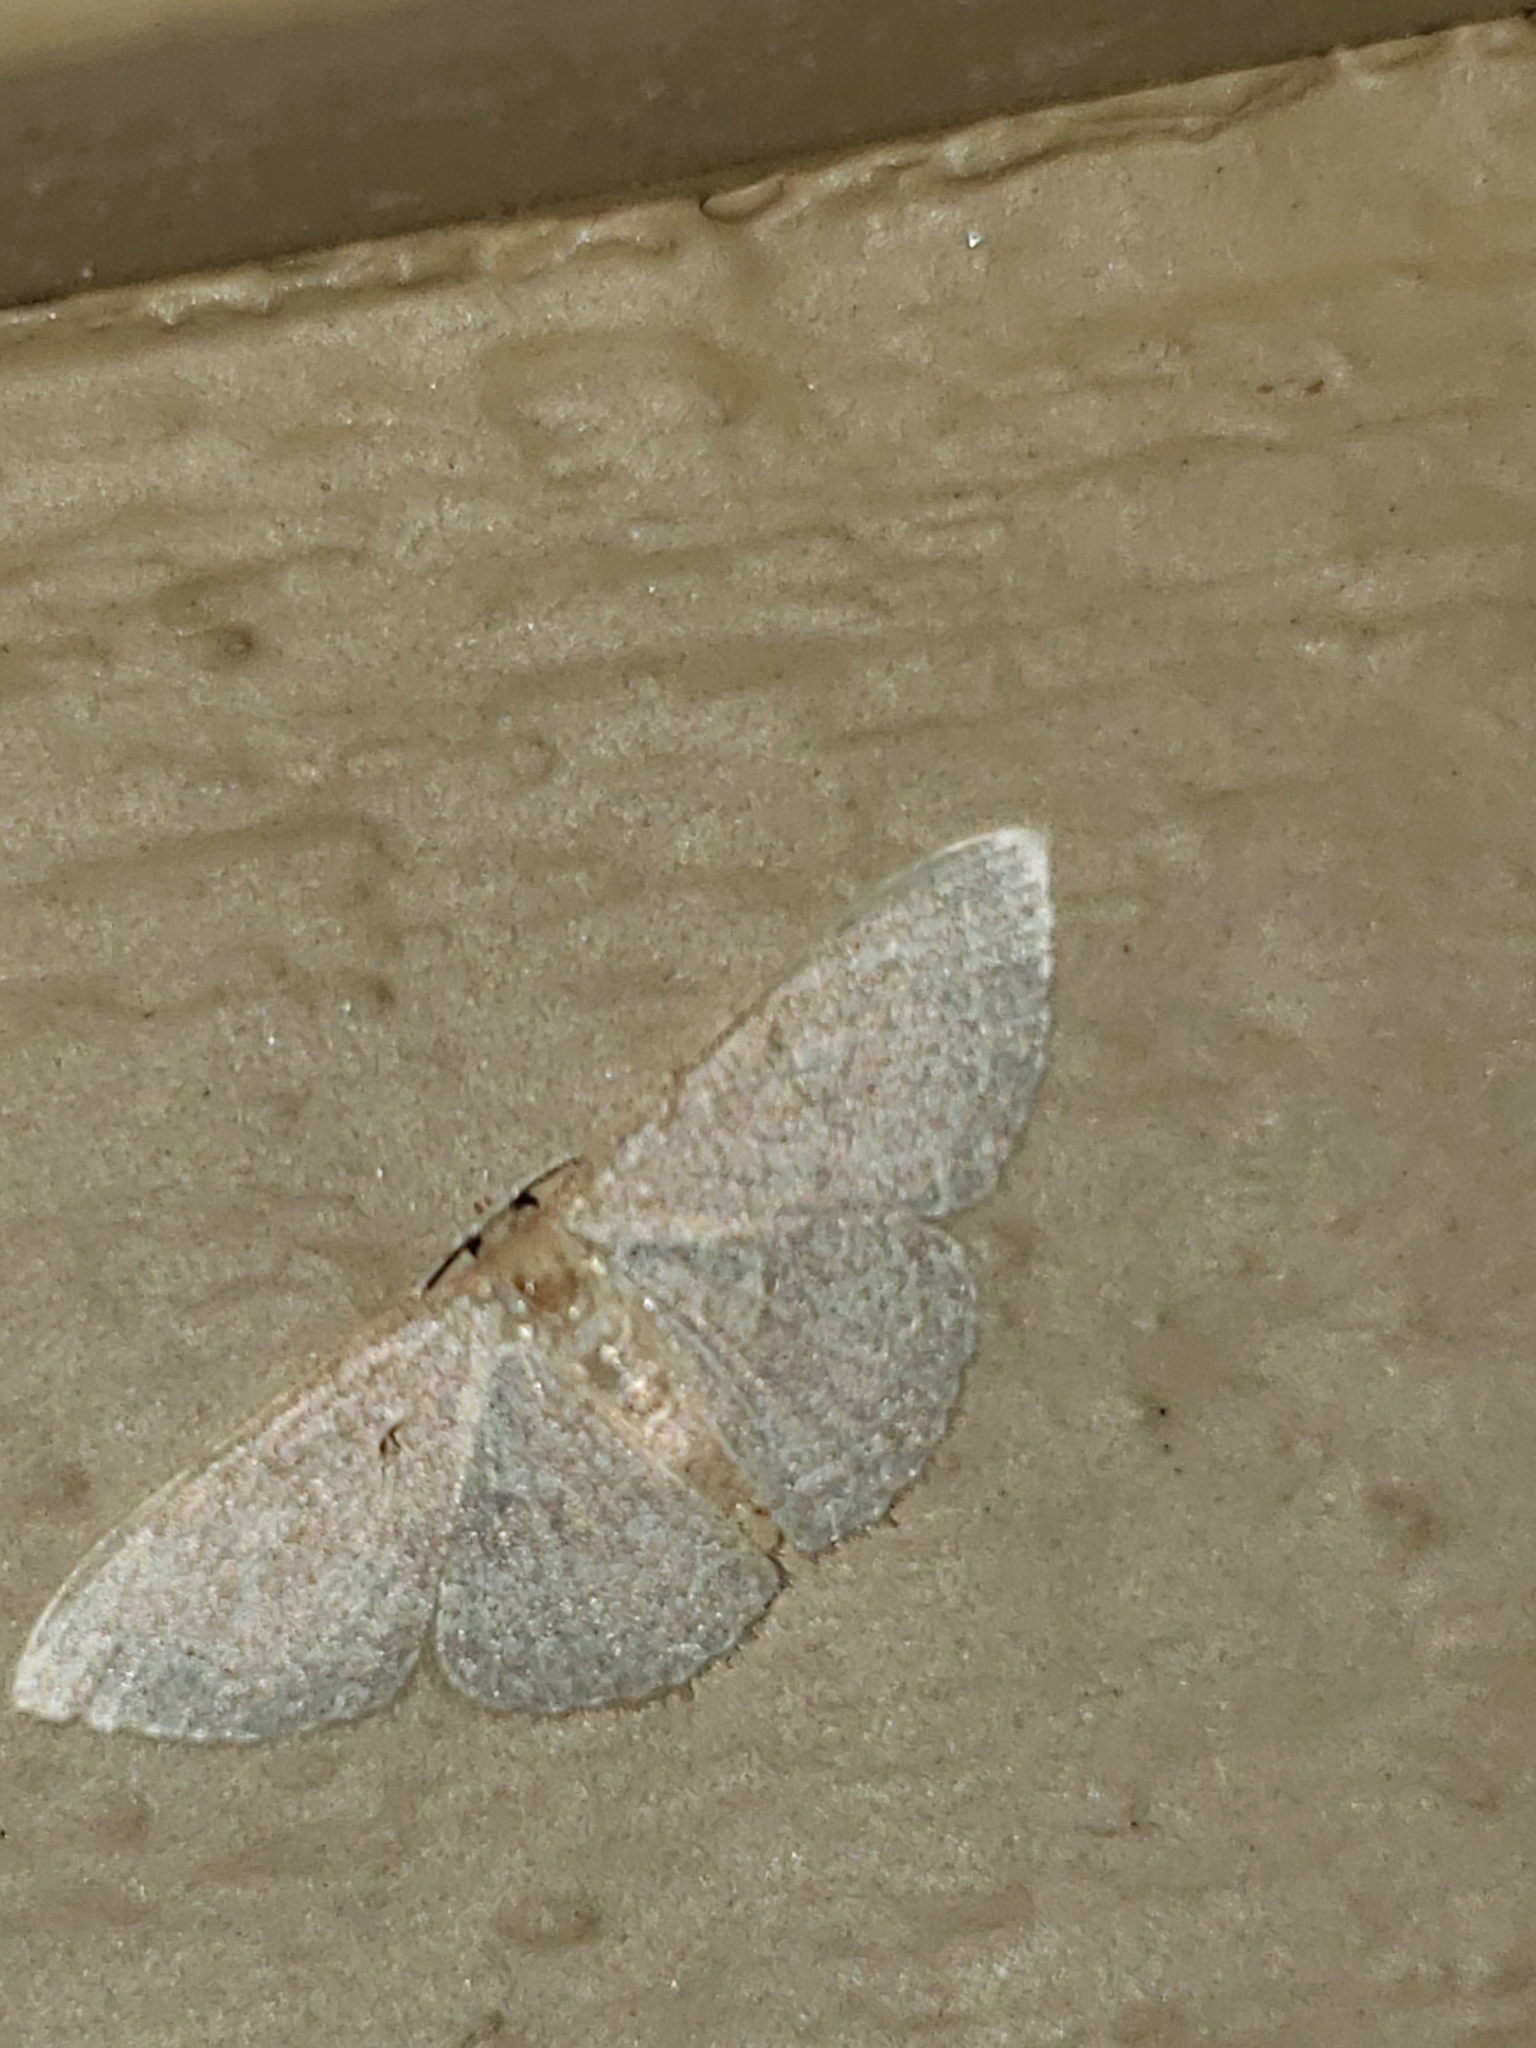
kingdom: Animalia
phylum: Arthropoda
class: Insecta
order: Lepidoptera
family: Geometridae
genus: Pleuroprucha
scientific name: Pleuroprucha insulsaria
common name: Common tan wave
